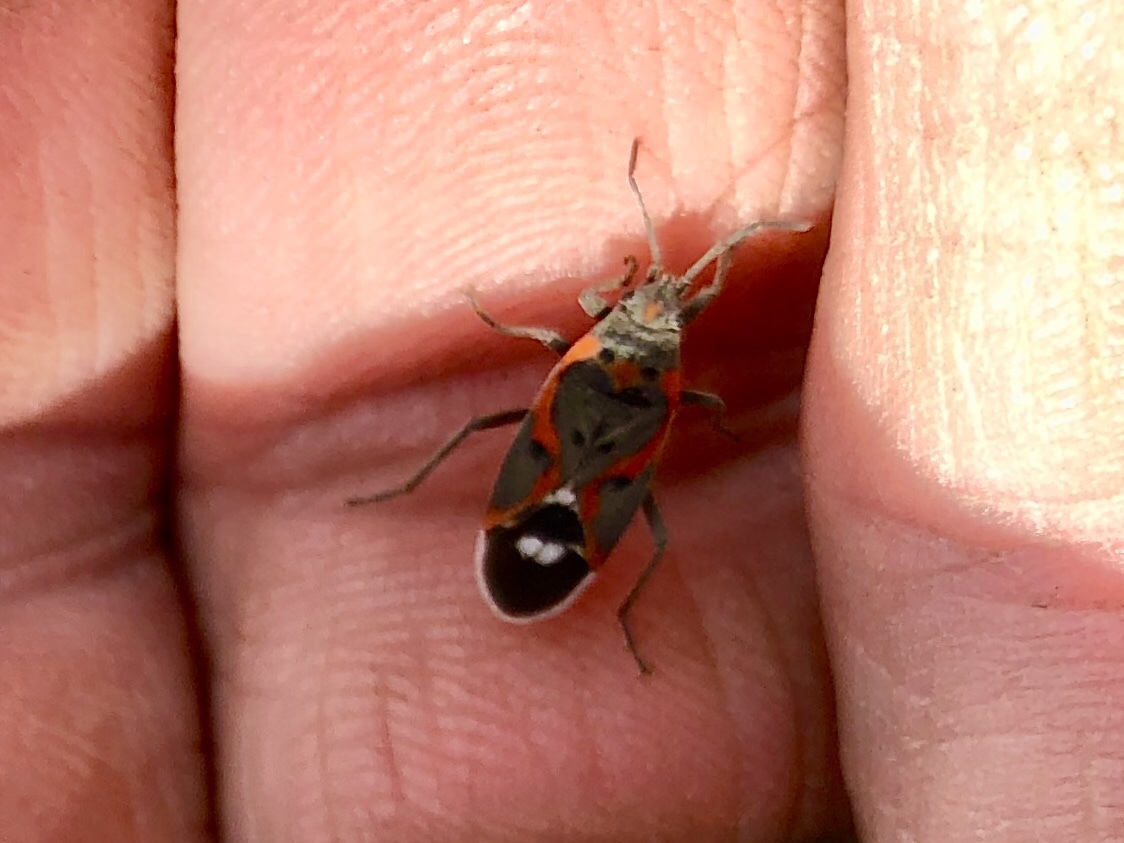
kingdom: Animalia
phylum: Arthropoda
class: Insecta
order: Hemiptera
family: Lygaeidae
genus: Lygaeus
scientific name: Lygaeus kalmii
